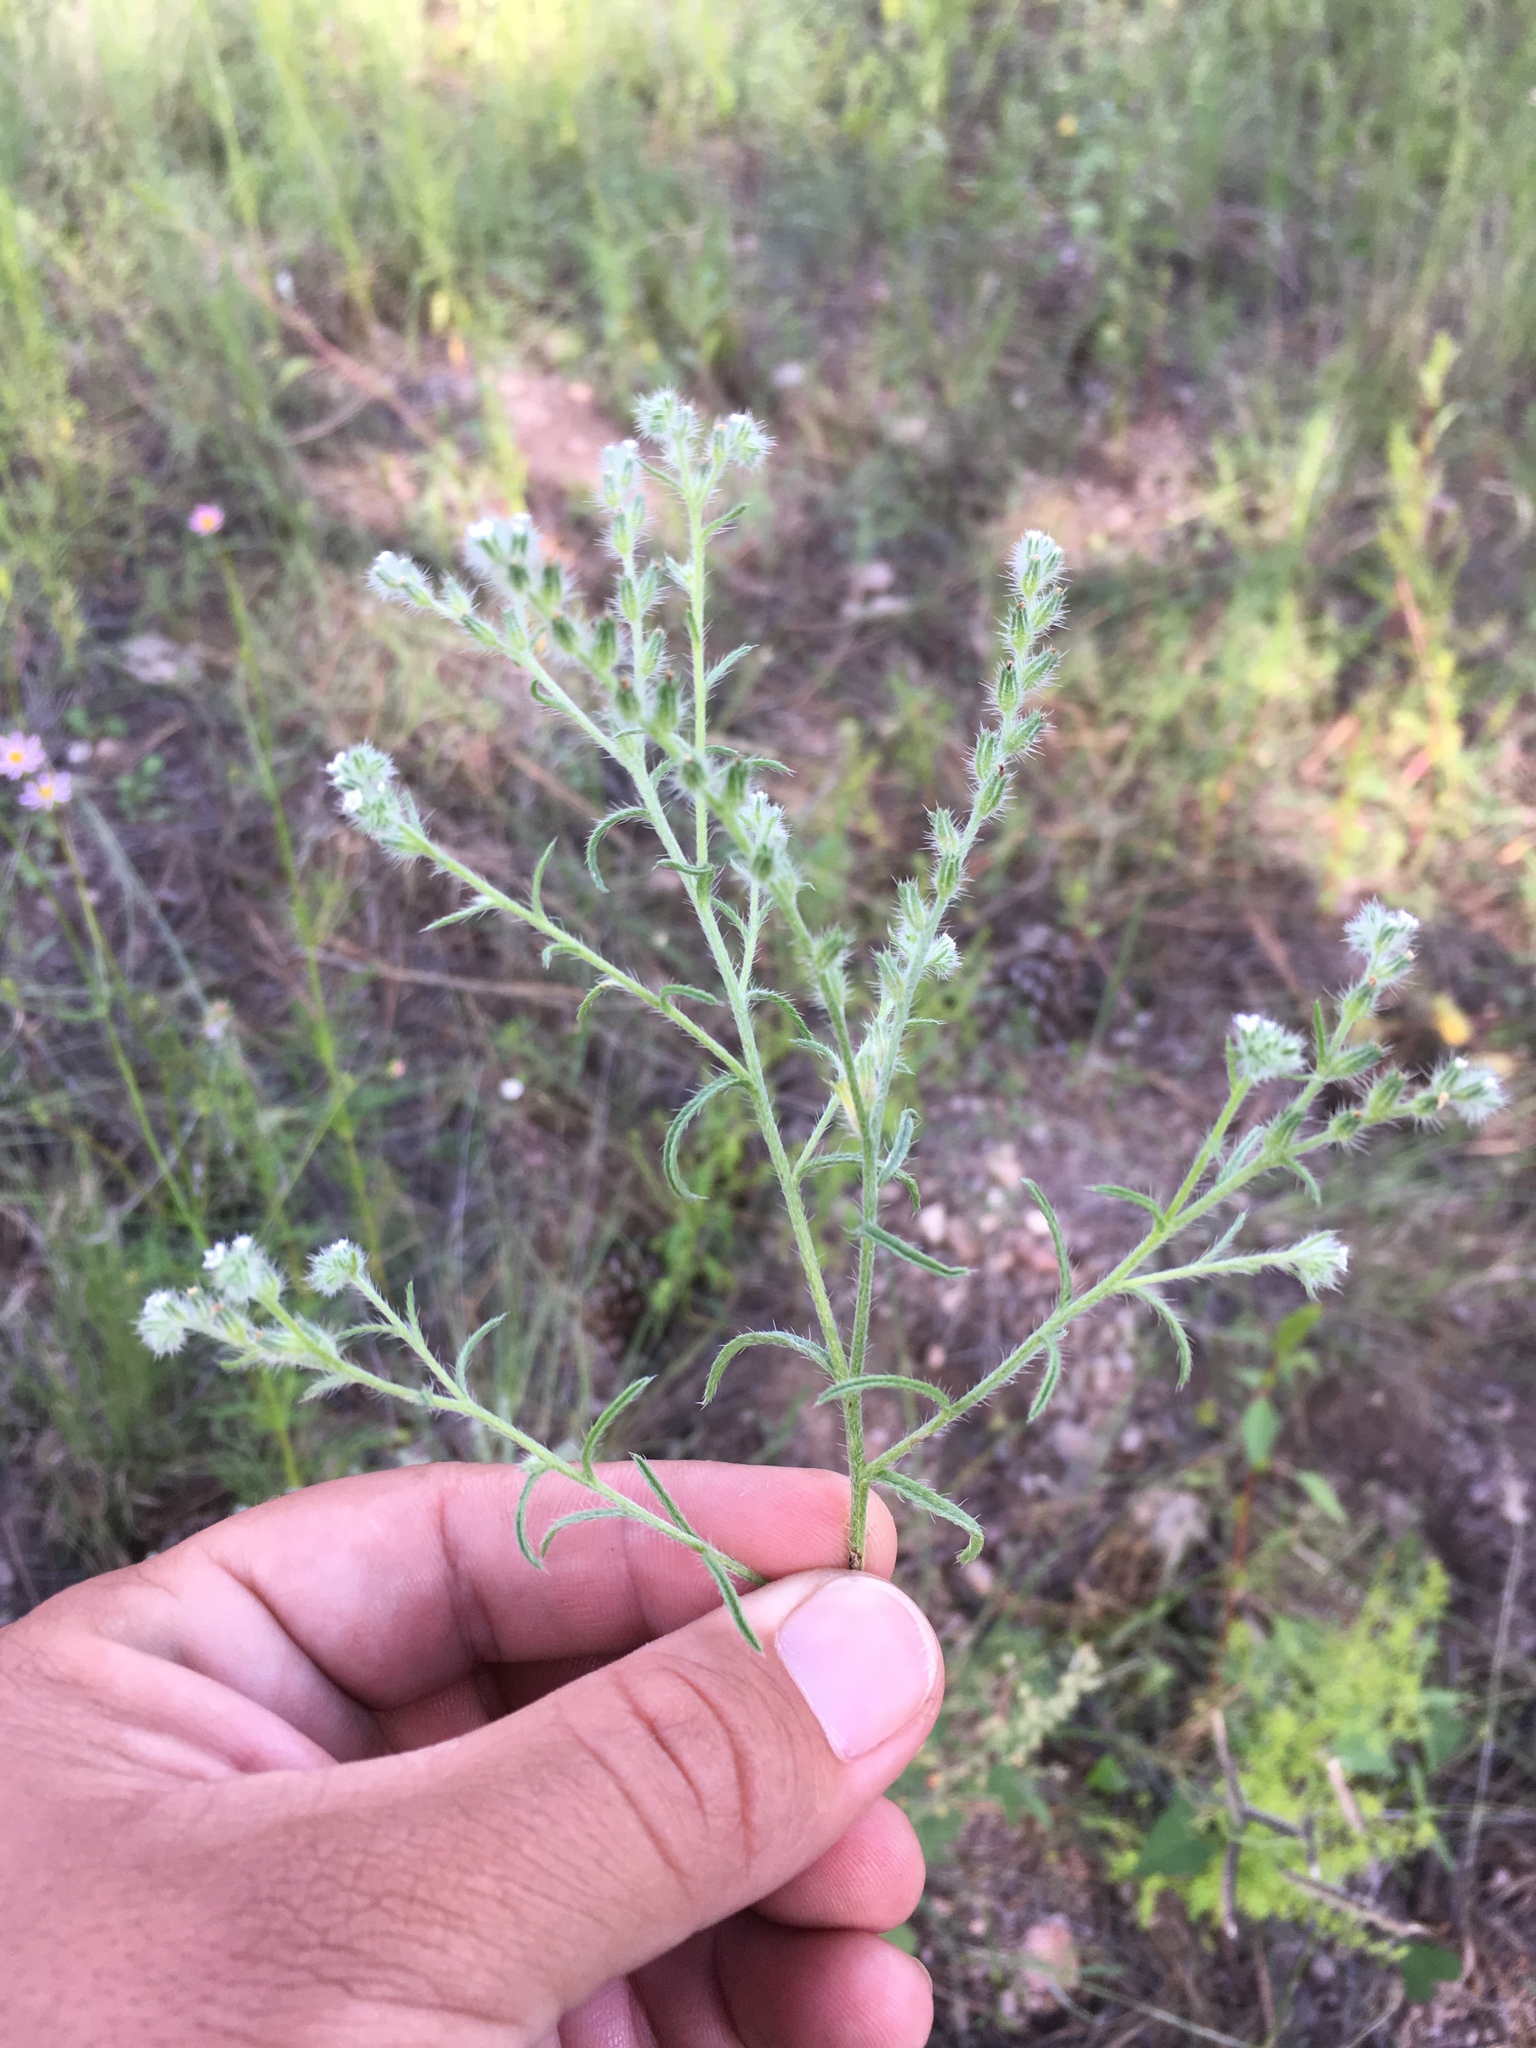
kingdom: Plantae
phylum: Tracheophyta
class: Magnoliopsida
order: Boraginales
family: Boraginaceae
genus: Cryptantha
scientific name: Cryptantha fendleri
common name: Sand-dune cryptantha
